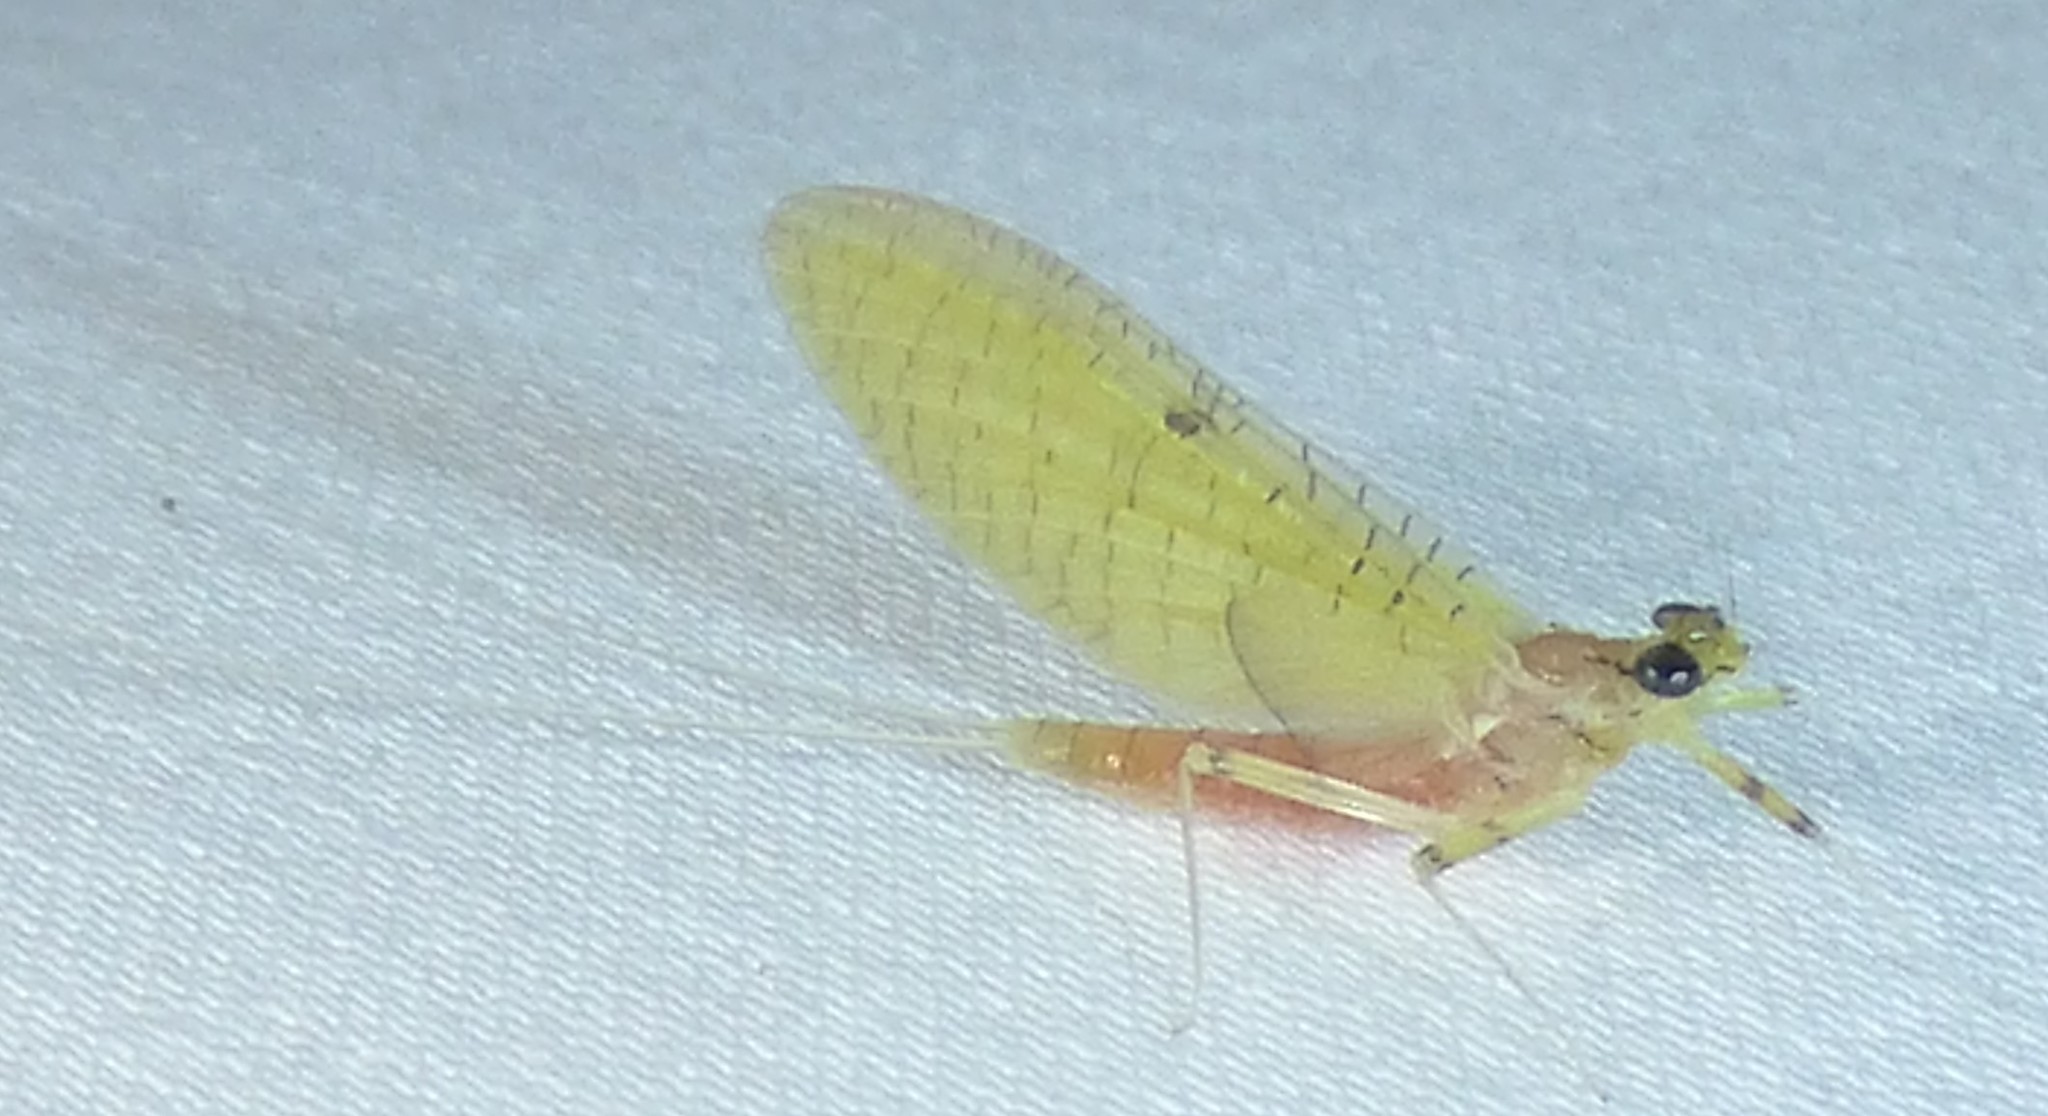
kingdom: Animalia
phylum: Arthropoda
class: Insecta
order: Ephemeroptera
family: Heptageniidae
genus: Stenacron
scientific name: Stenacron interpunctatum
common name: Orange cahill
